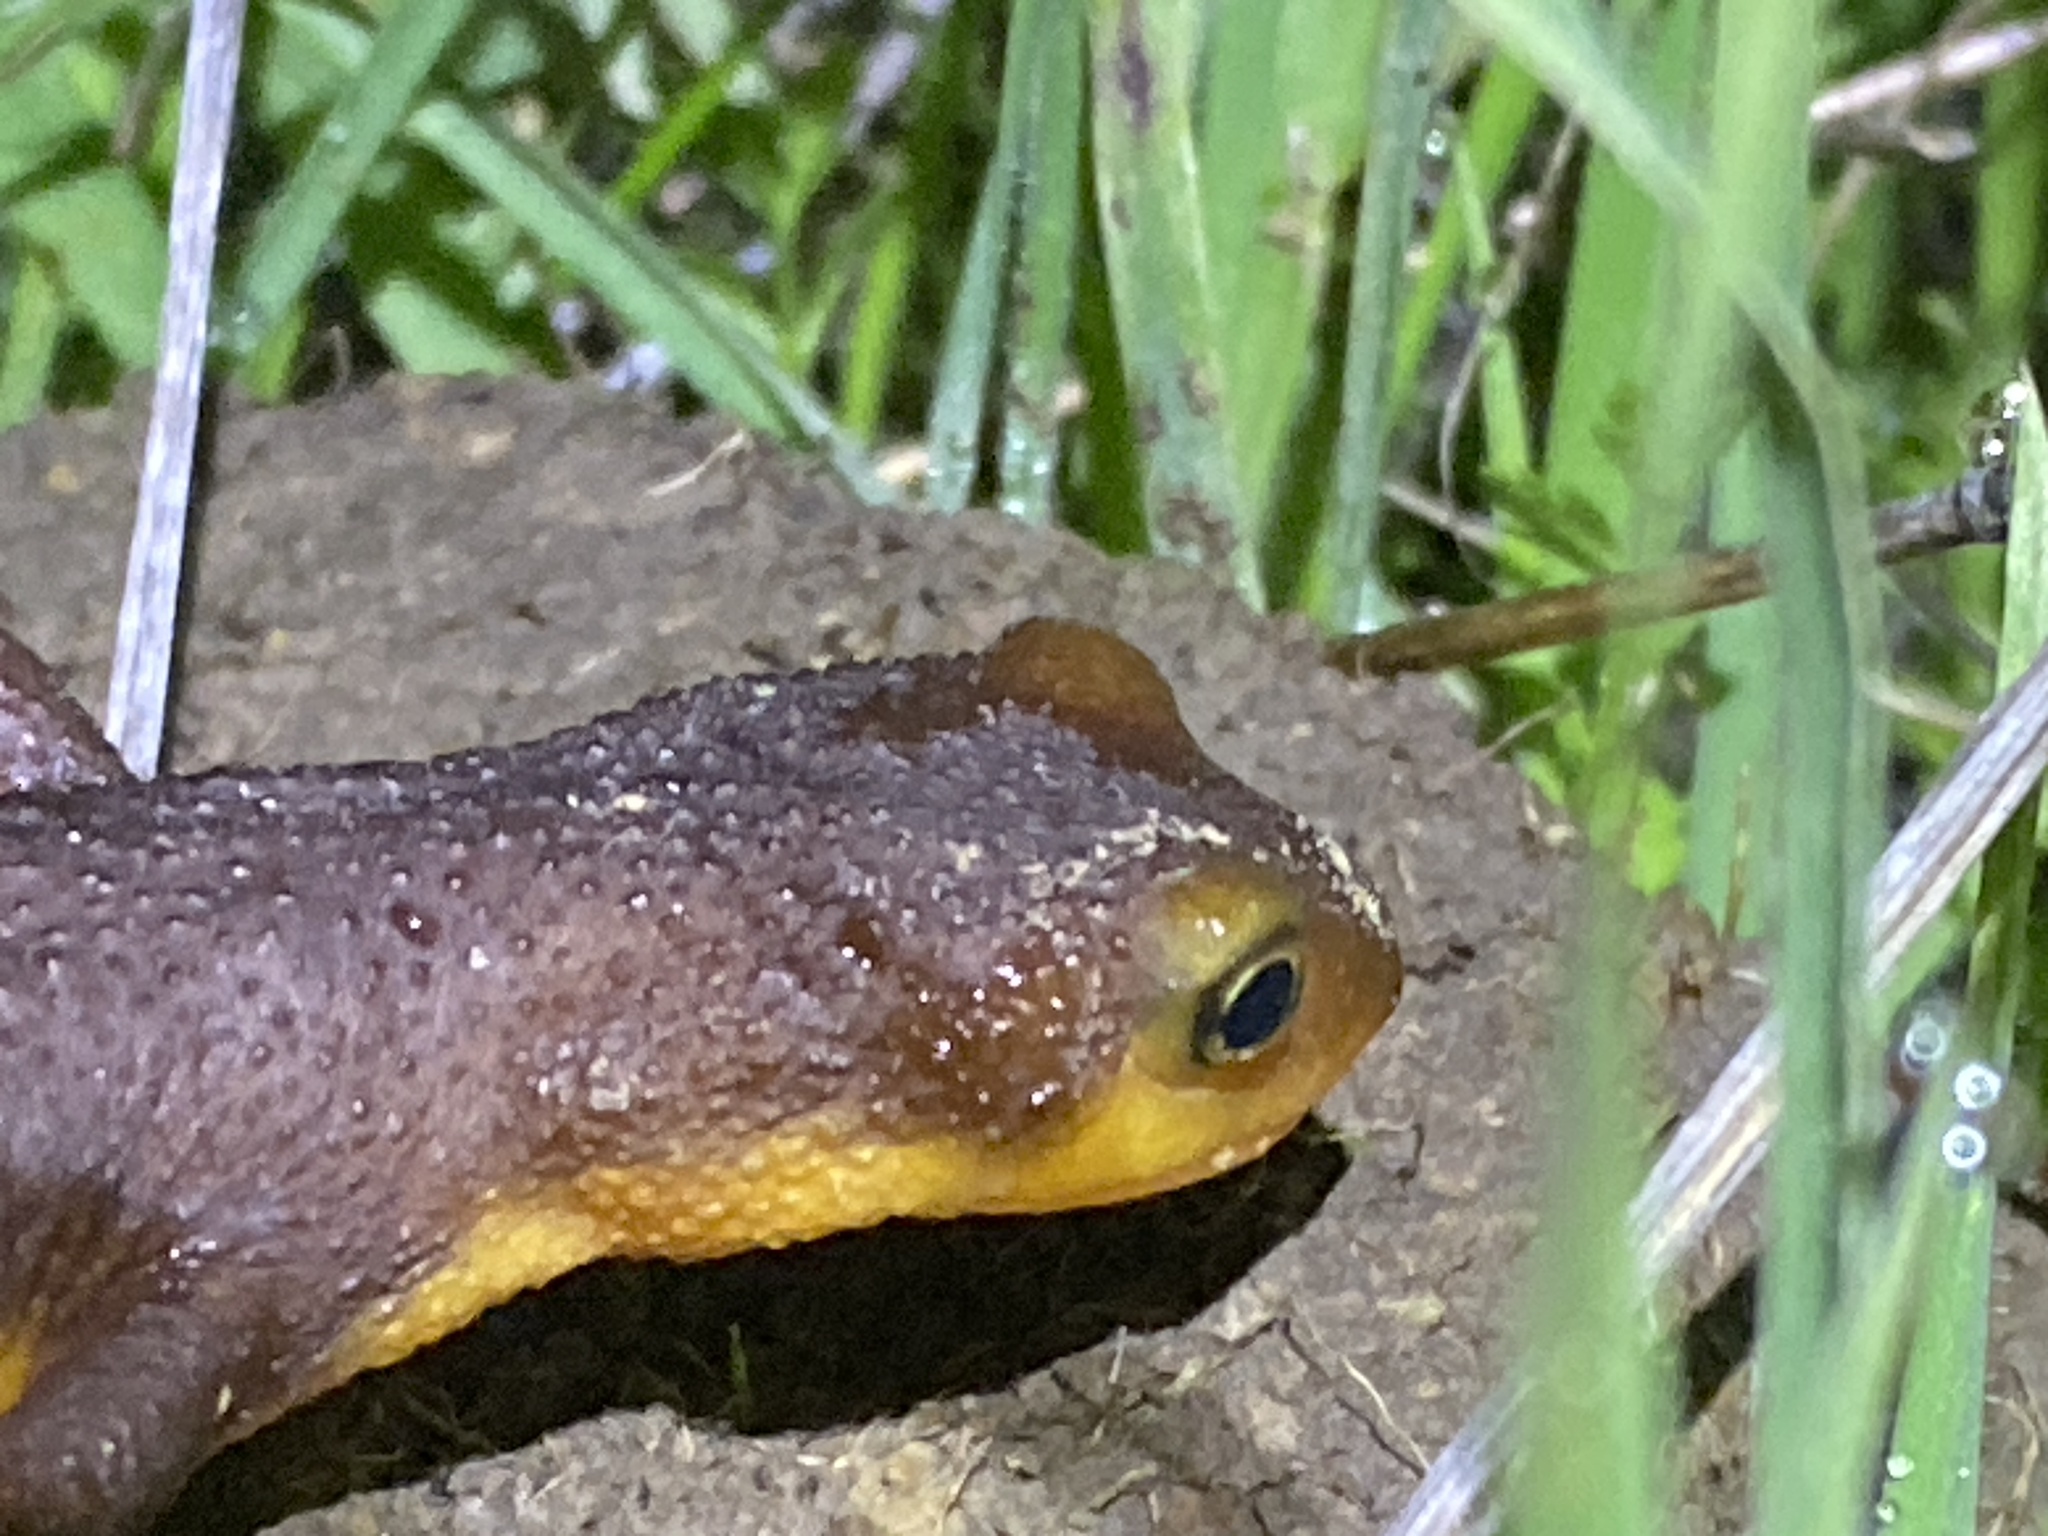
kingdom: Animalia
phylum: Chordata
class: Amphibia
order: Caudata
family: Salamandridae
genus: Taricha
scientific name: Taricha torosa
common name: California newt
